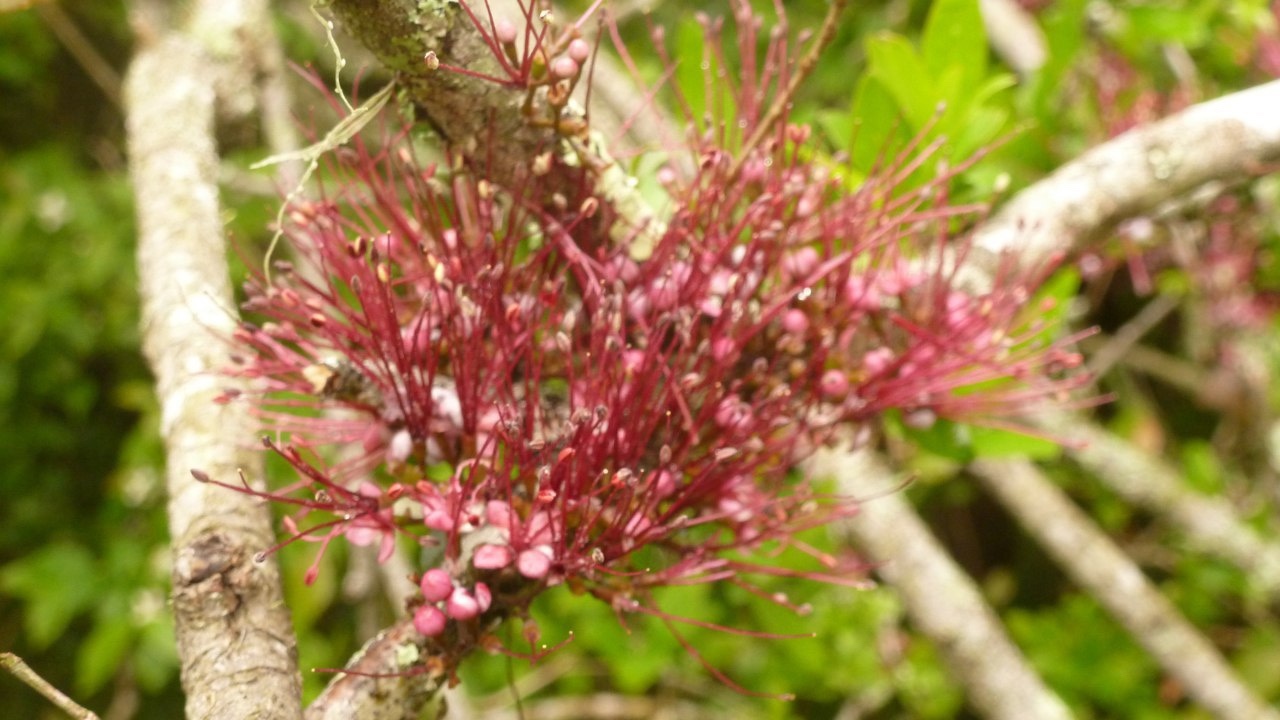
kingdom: Plantae
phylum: Tracheophyta
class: Magnoliopsida
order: Myrtales
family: Myrtaceae
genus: Myrrhinium
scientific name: Myrrhinium atropurpureum
